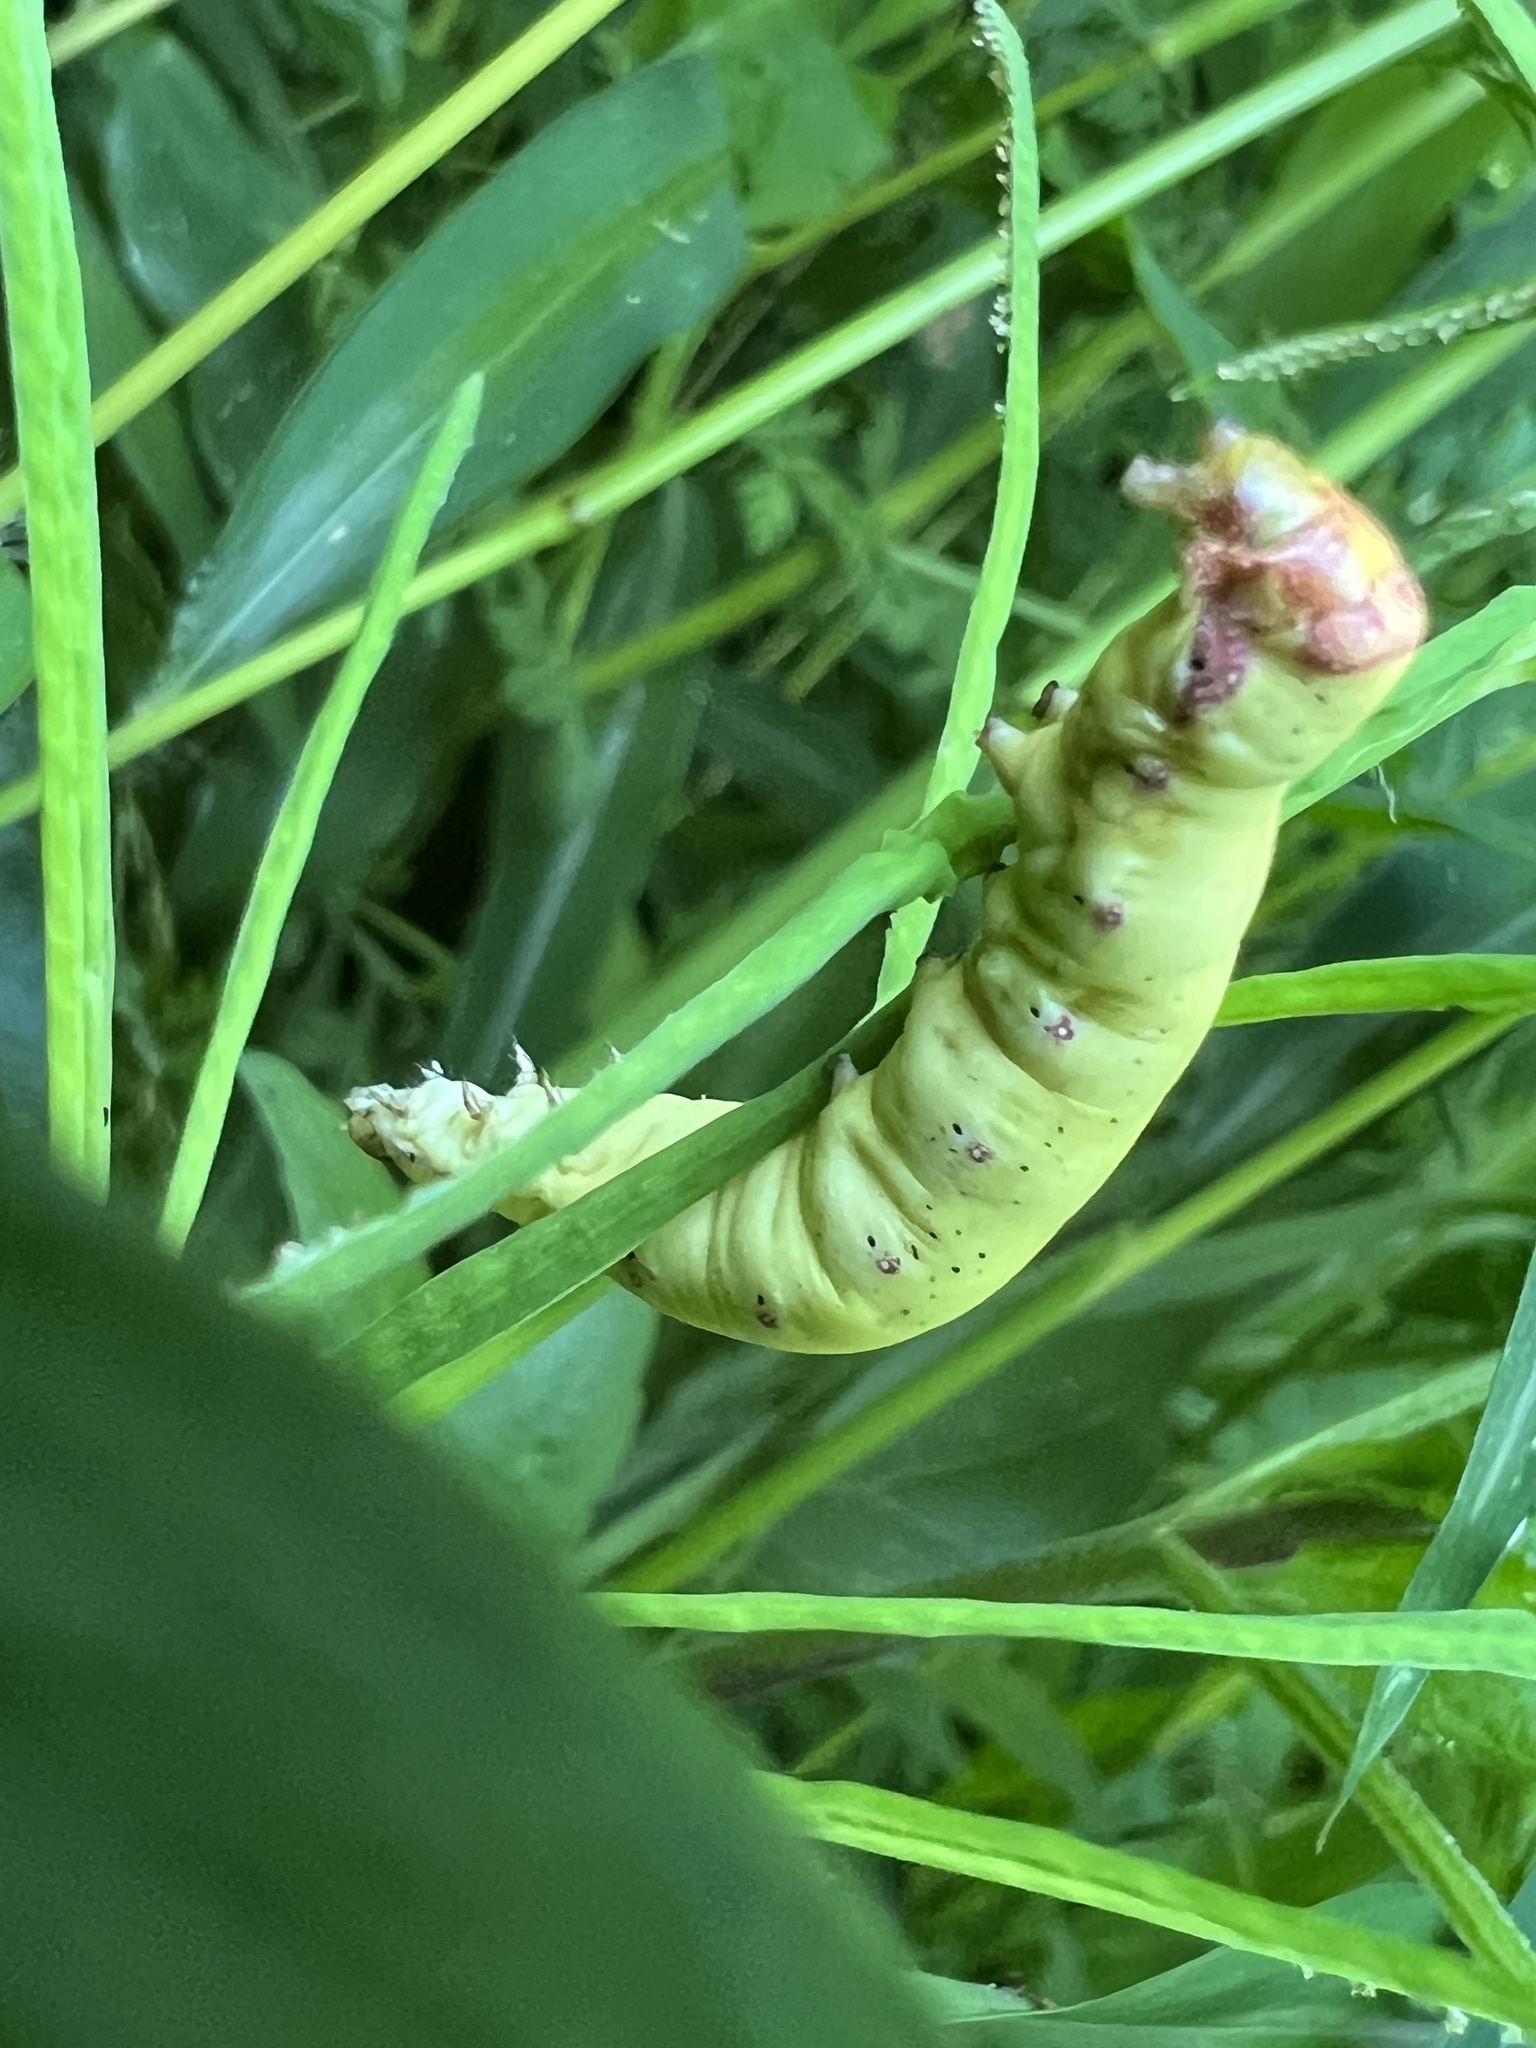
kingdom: Animalia
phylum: Arthropoda
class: Insecta
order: Lepidoptera
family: Noctuidae
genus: Condica
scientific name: Condica sutor
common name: Cobbler moth
